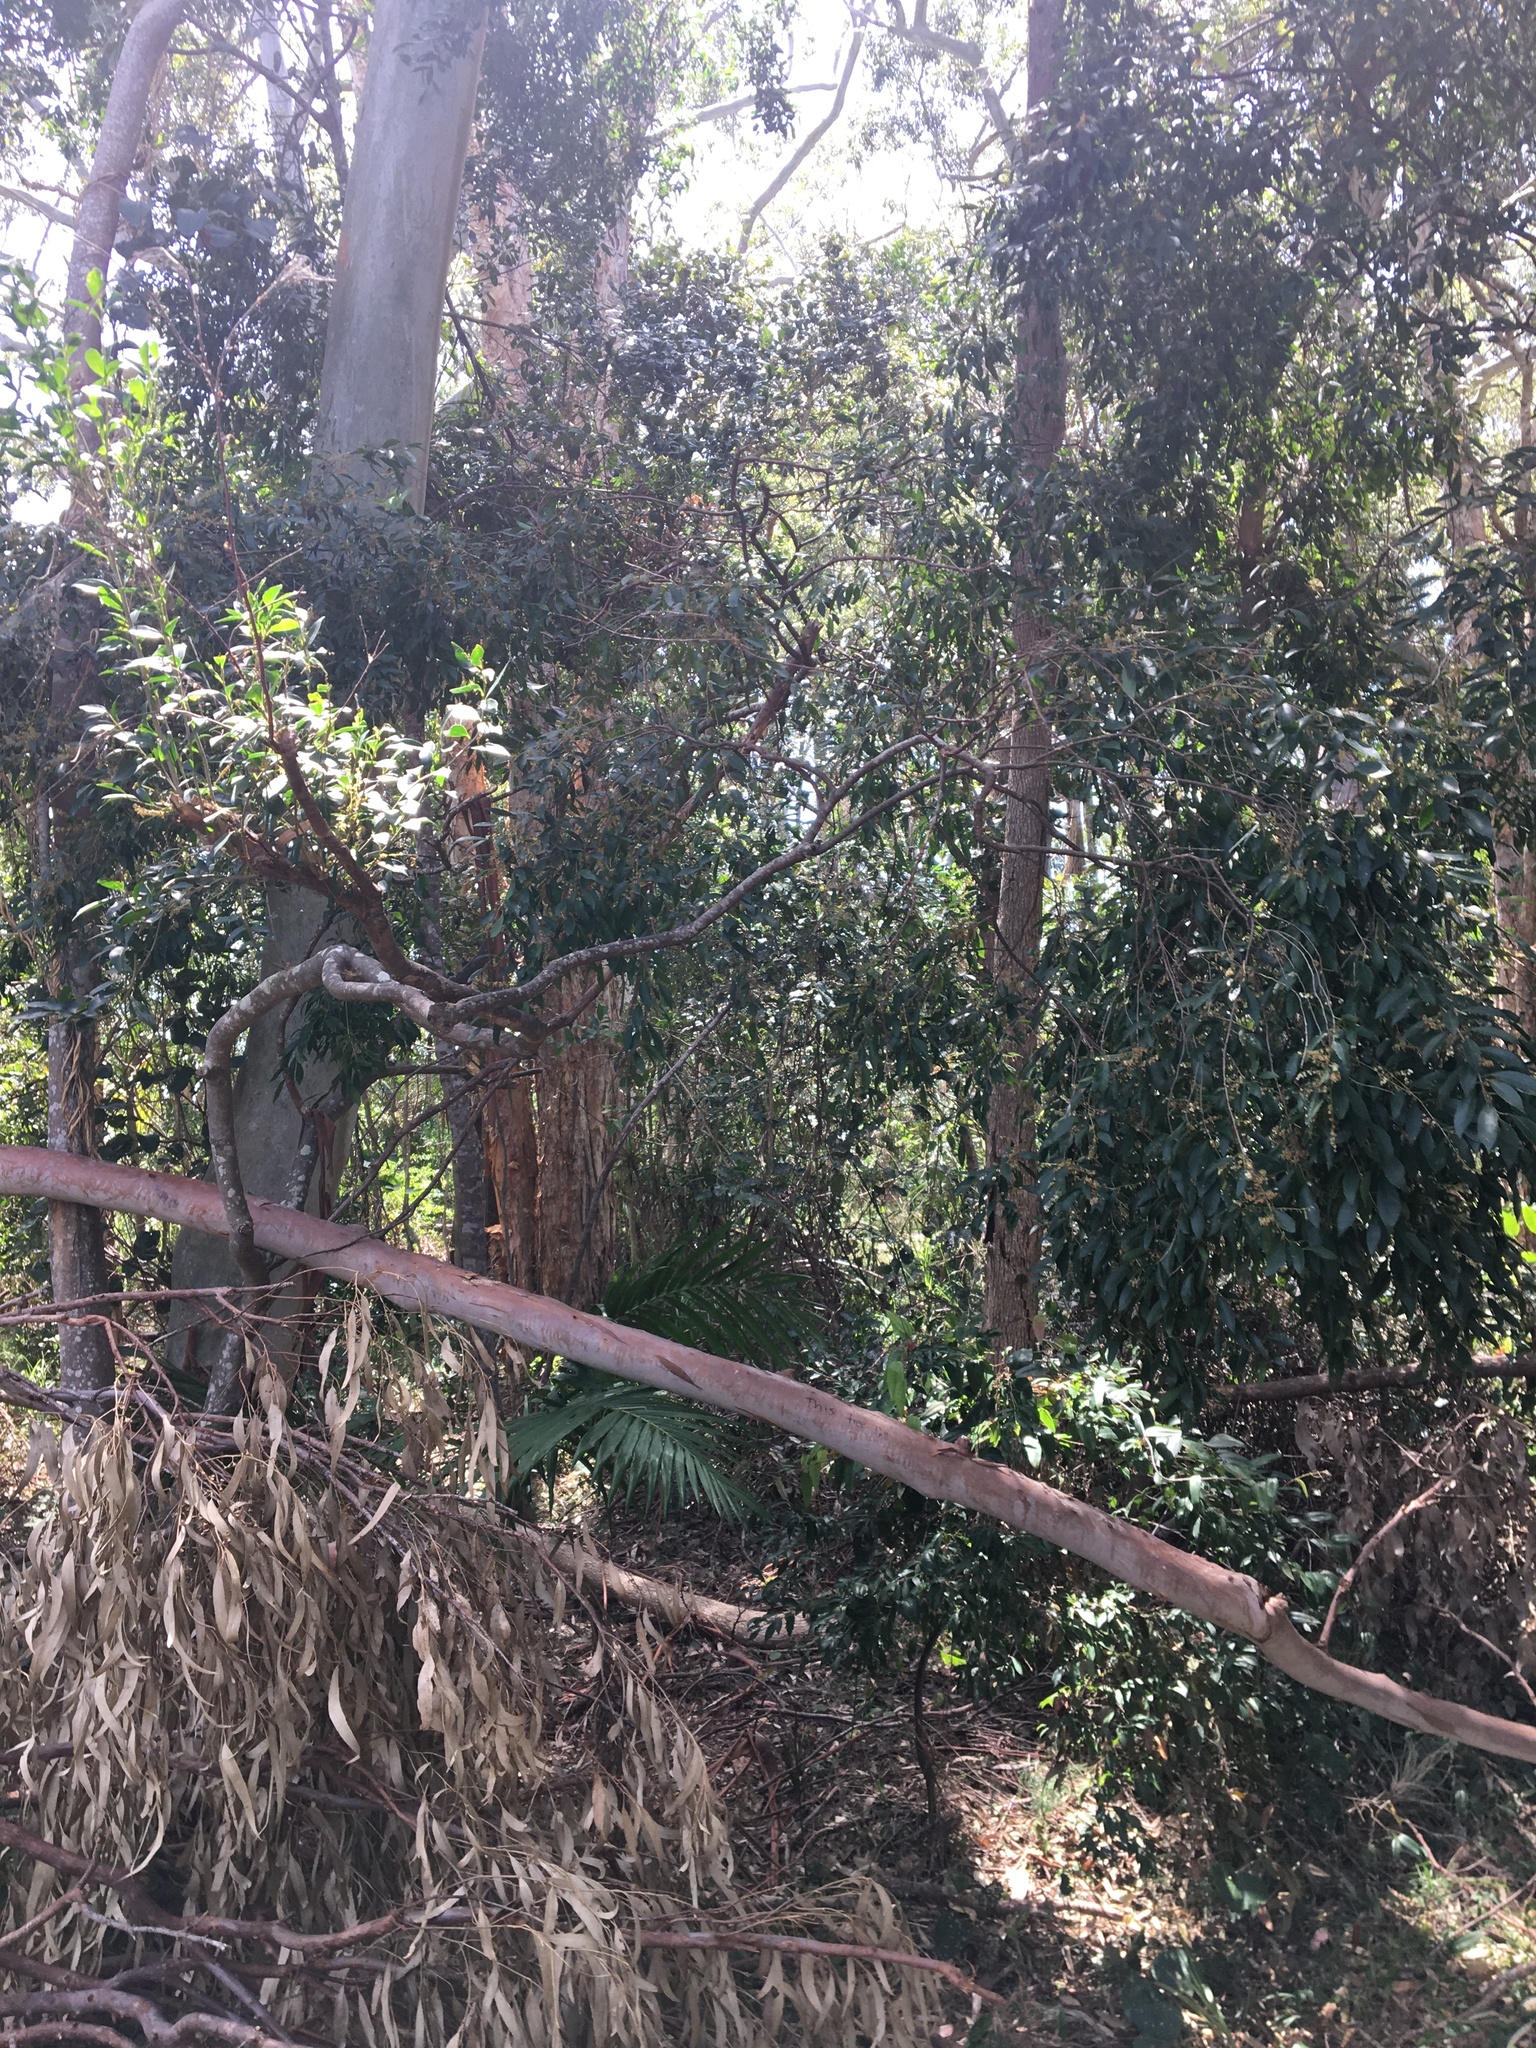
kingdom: Plantae
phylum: Tracheophyta
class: Magnoliopsida
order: Oxalidales
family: Elaeocarpaceae
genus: Elaeocarpus
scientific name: Elaeocarpus obovatus
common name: Freckled oliveberry
